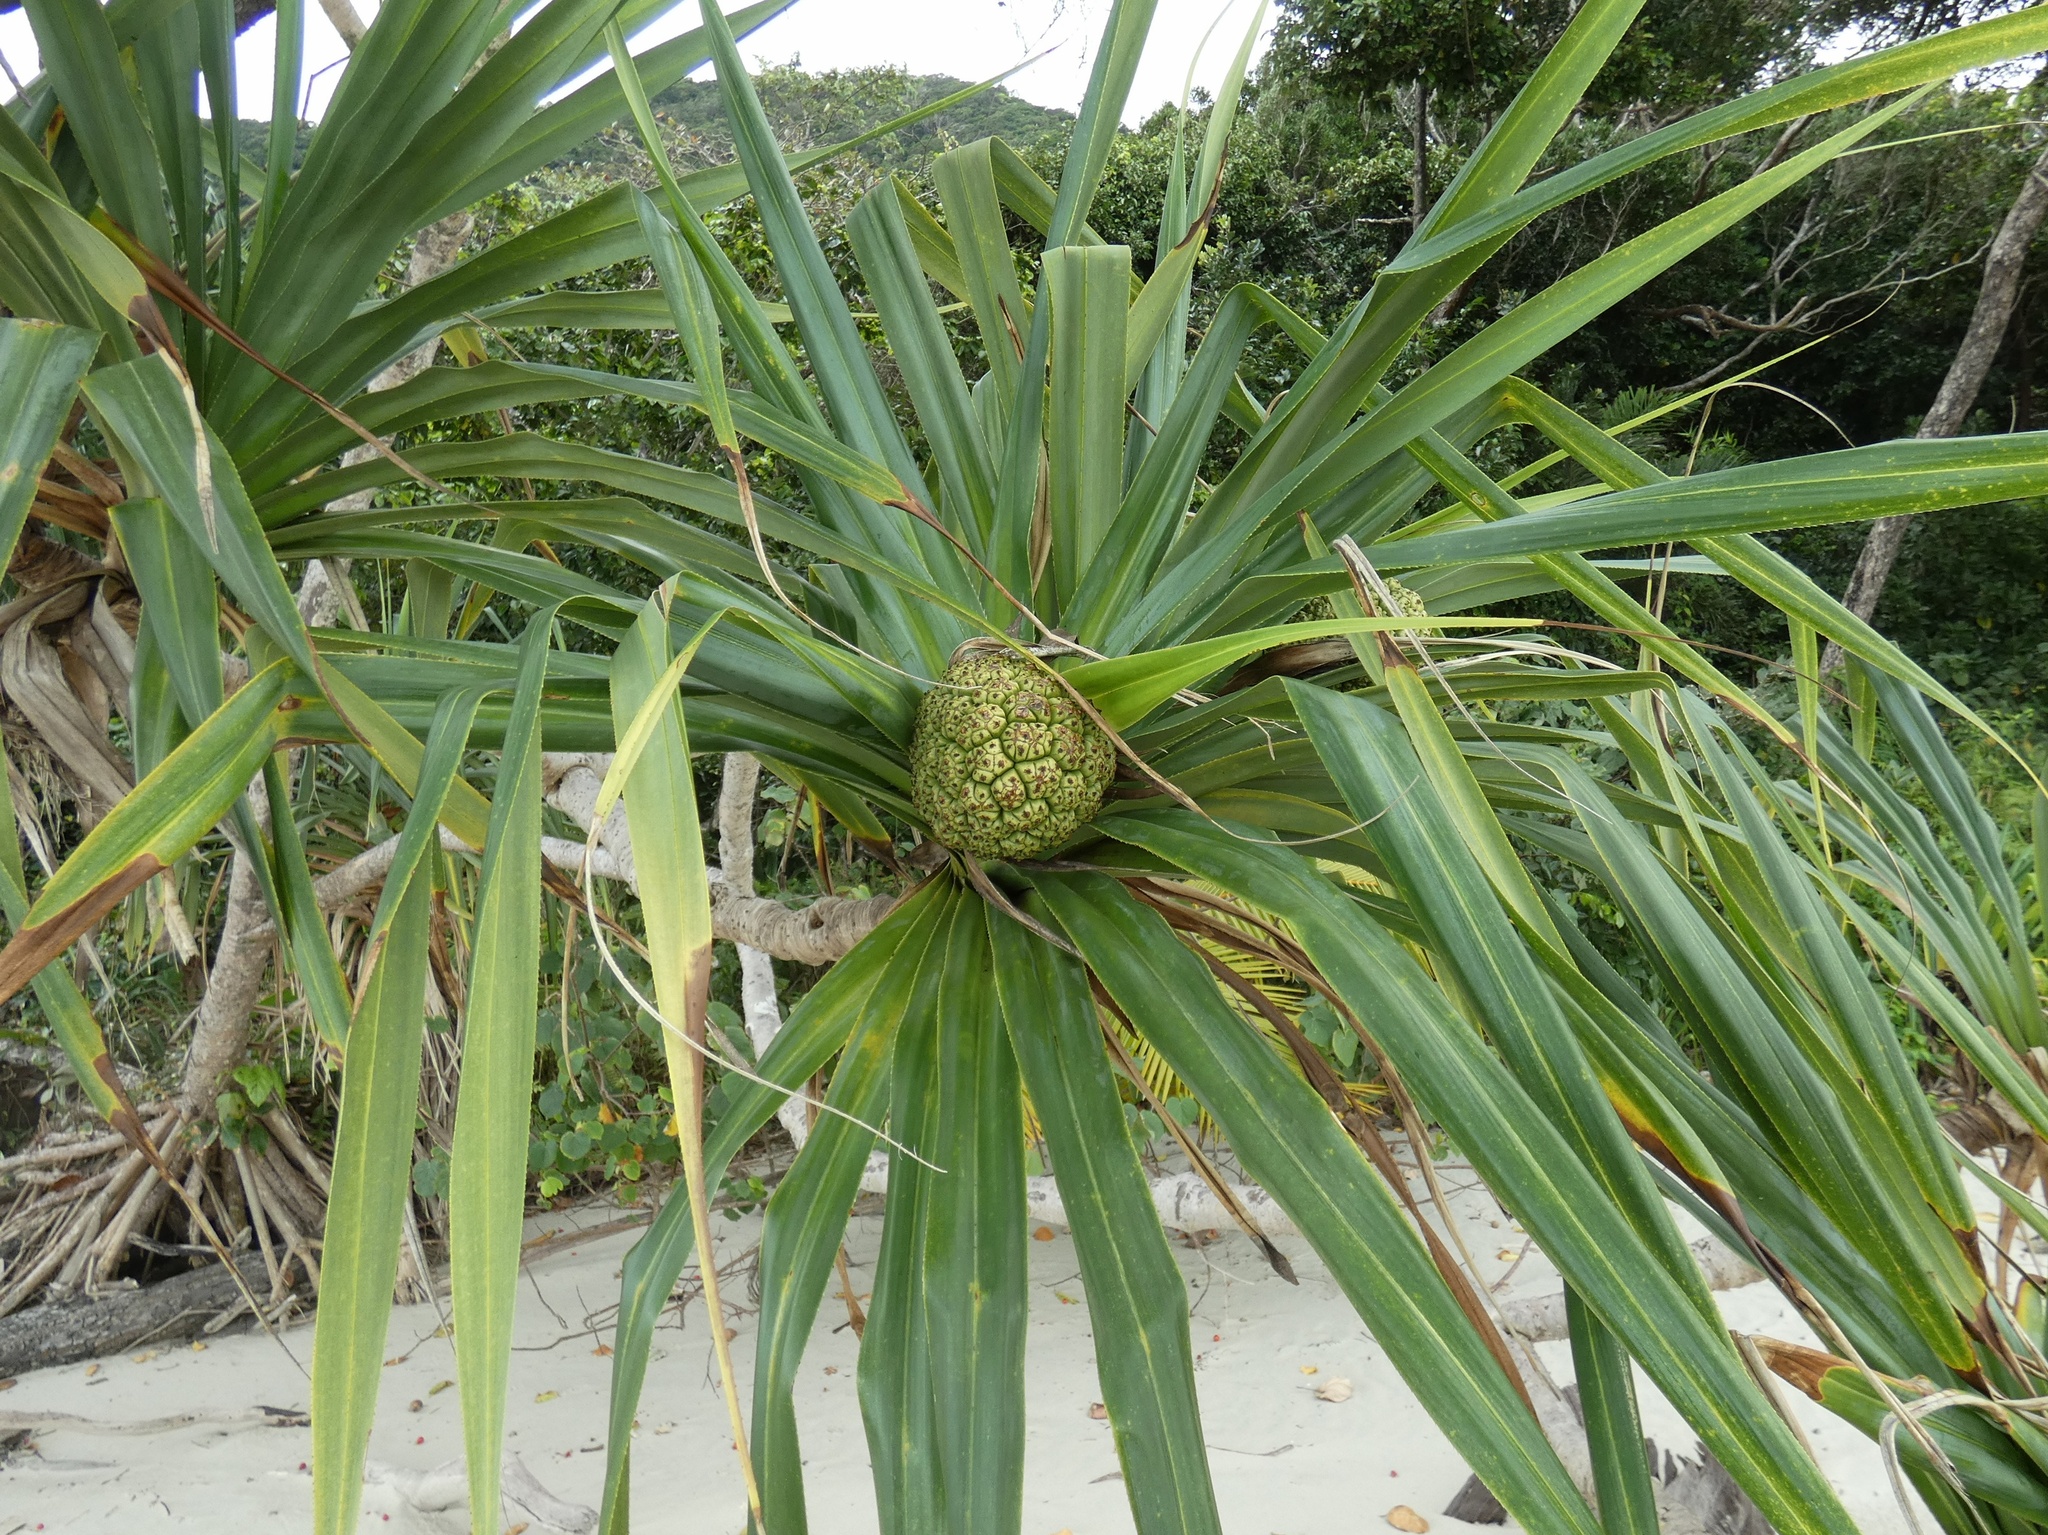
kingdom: Plantae
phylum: Tracheophyta
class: Liliopsida
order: Pandanales
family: Pandanaceae
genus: Pandanus
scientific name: Pandanus tectorius
